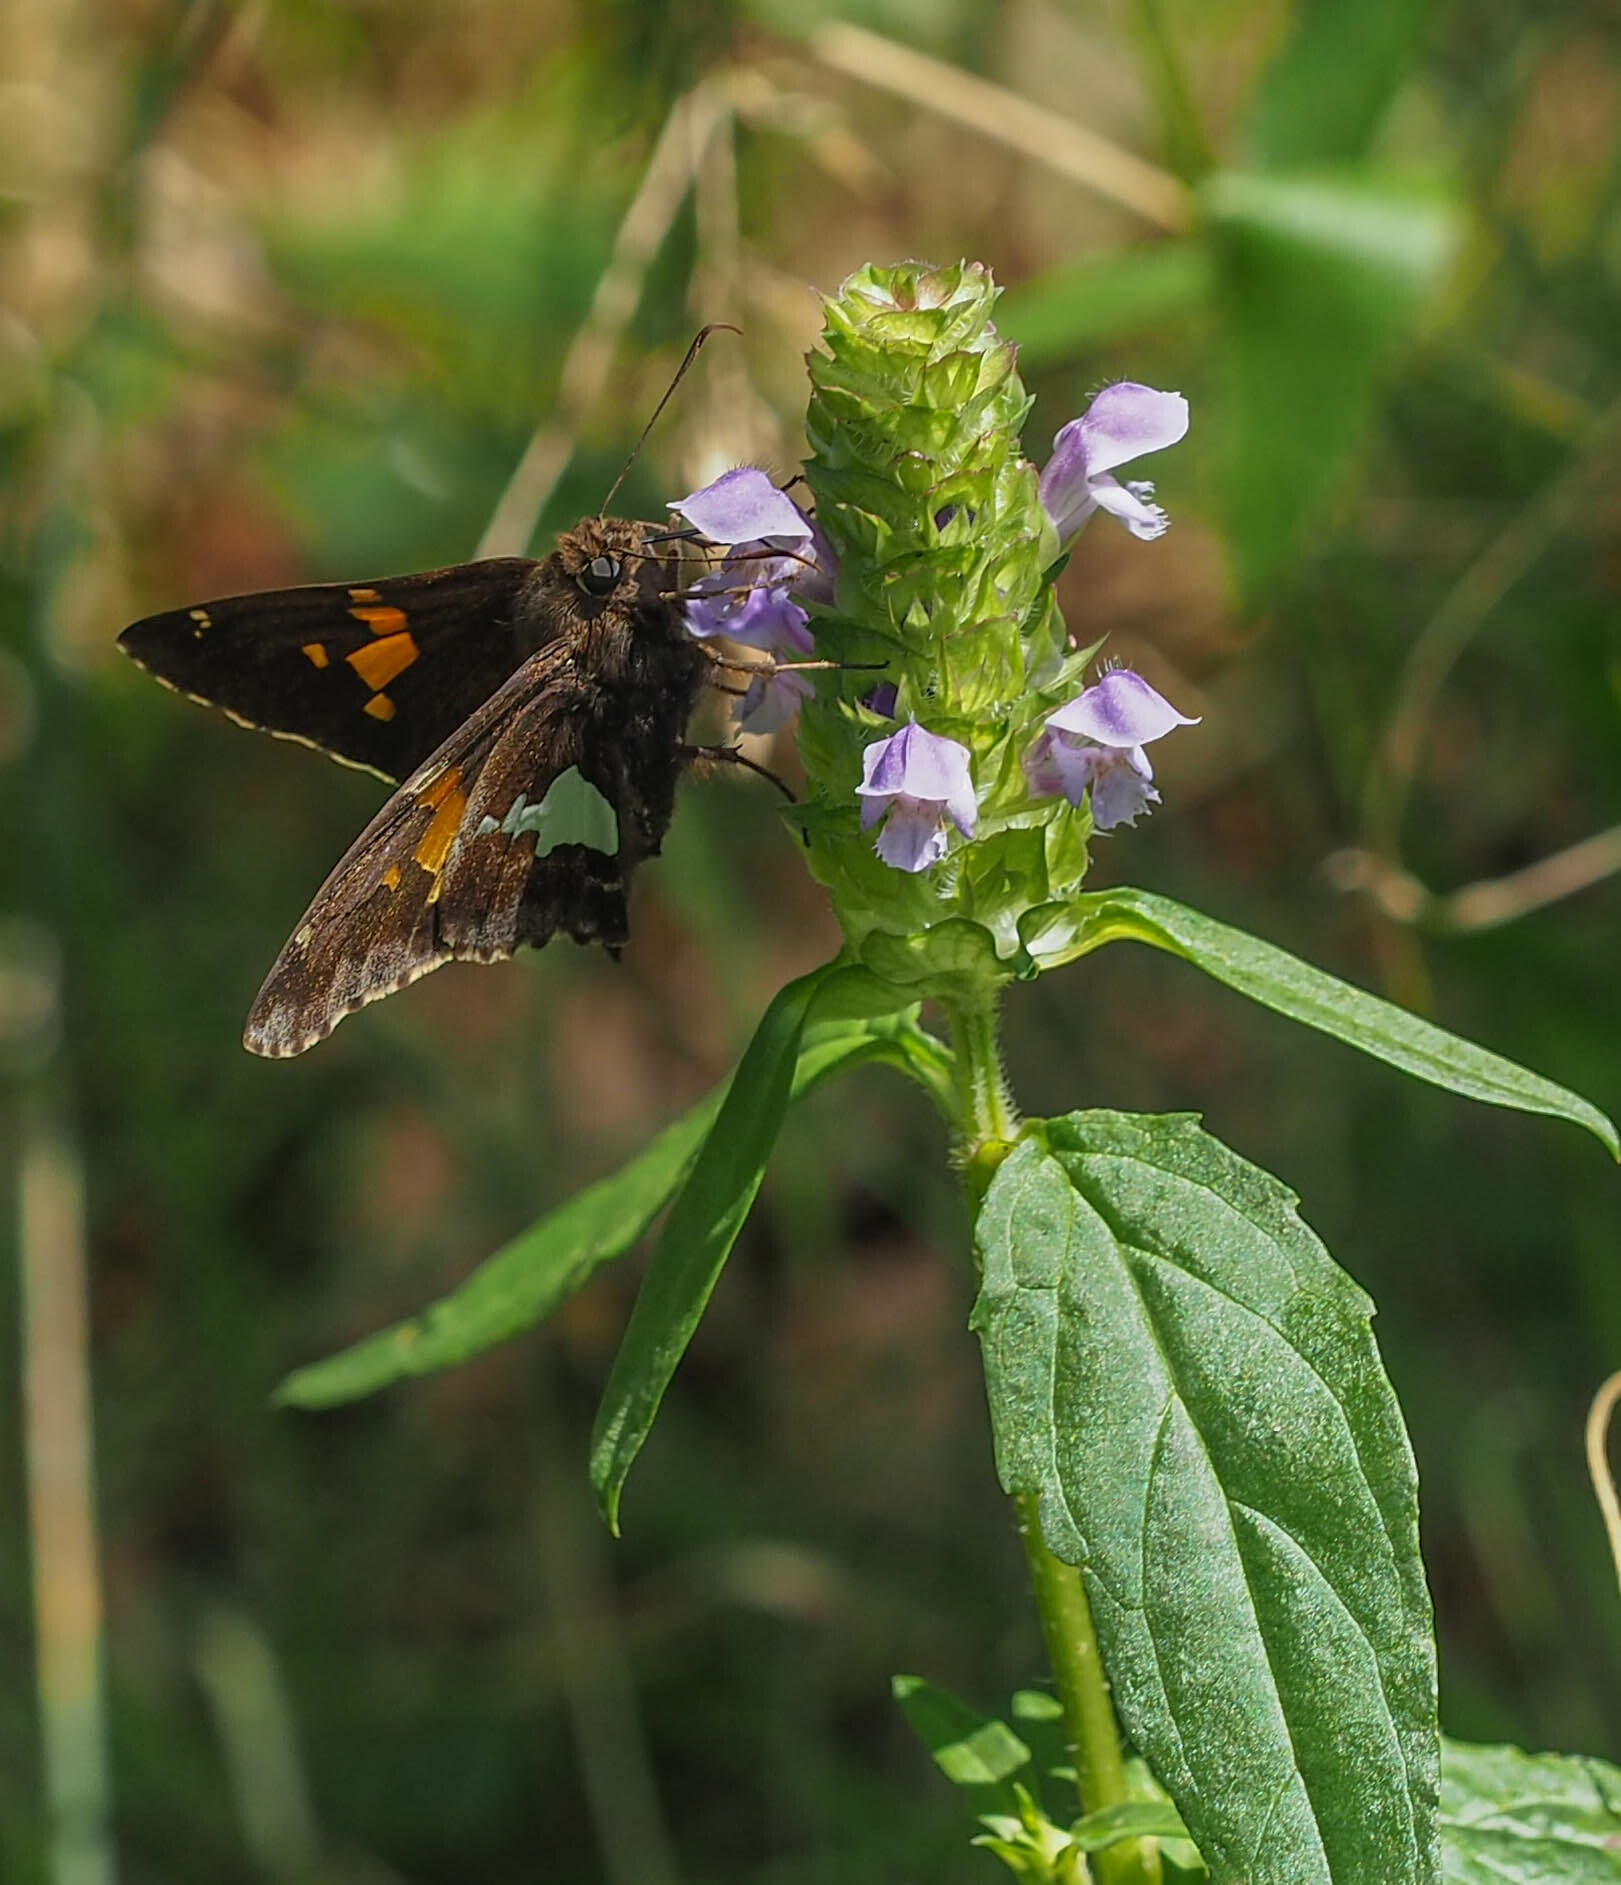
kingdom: Animalia
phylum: Arthropoda
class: Insecta
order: Lepidoptera
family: Hesperiidae
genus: Epargyreus
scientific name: Epargyreus clarus
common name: Silver-spotted skipper
